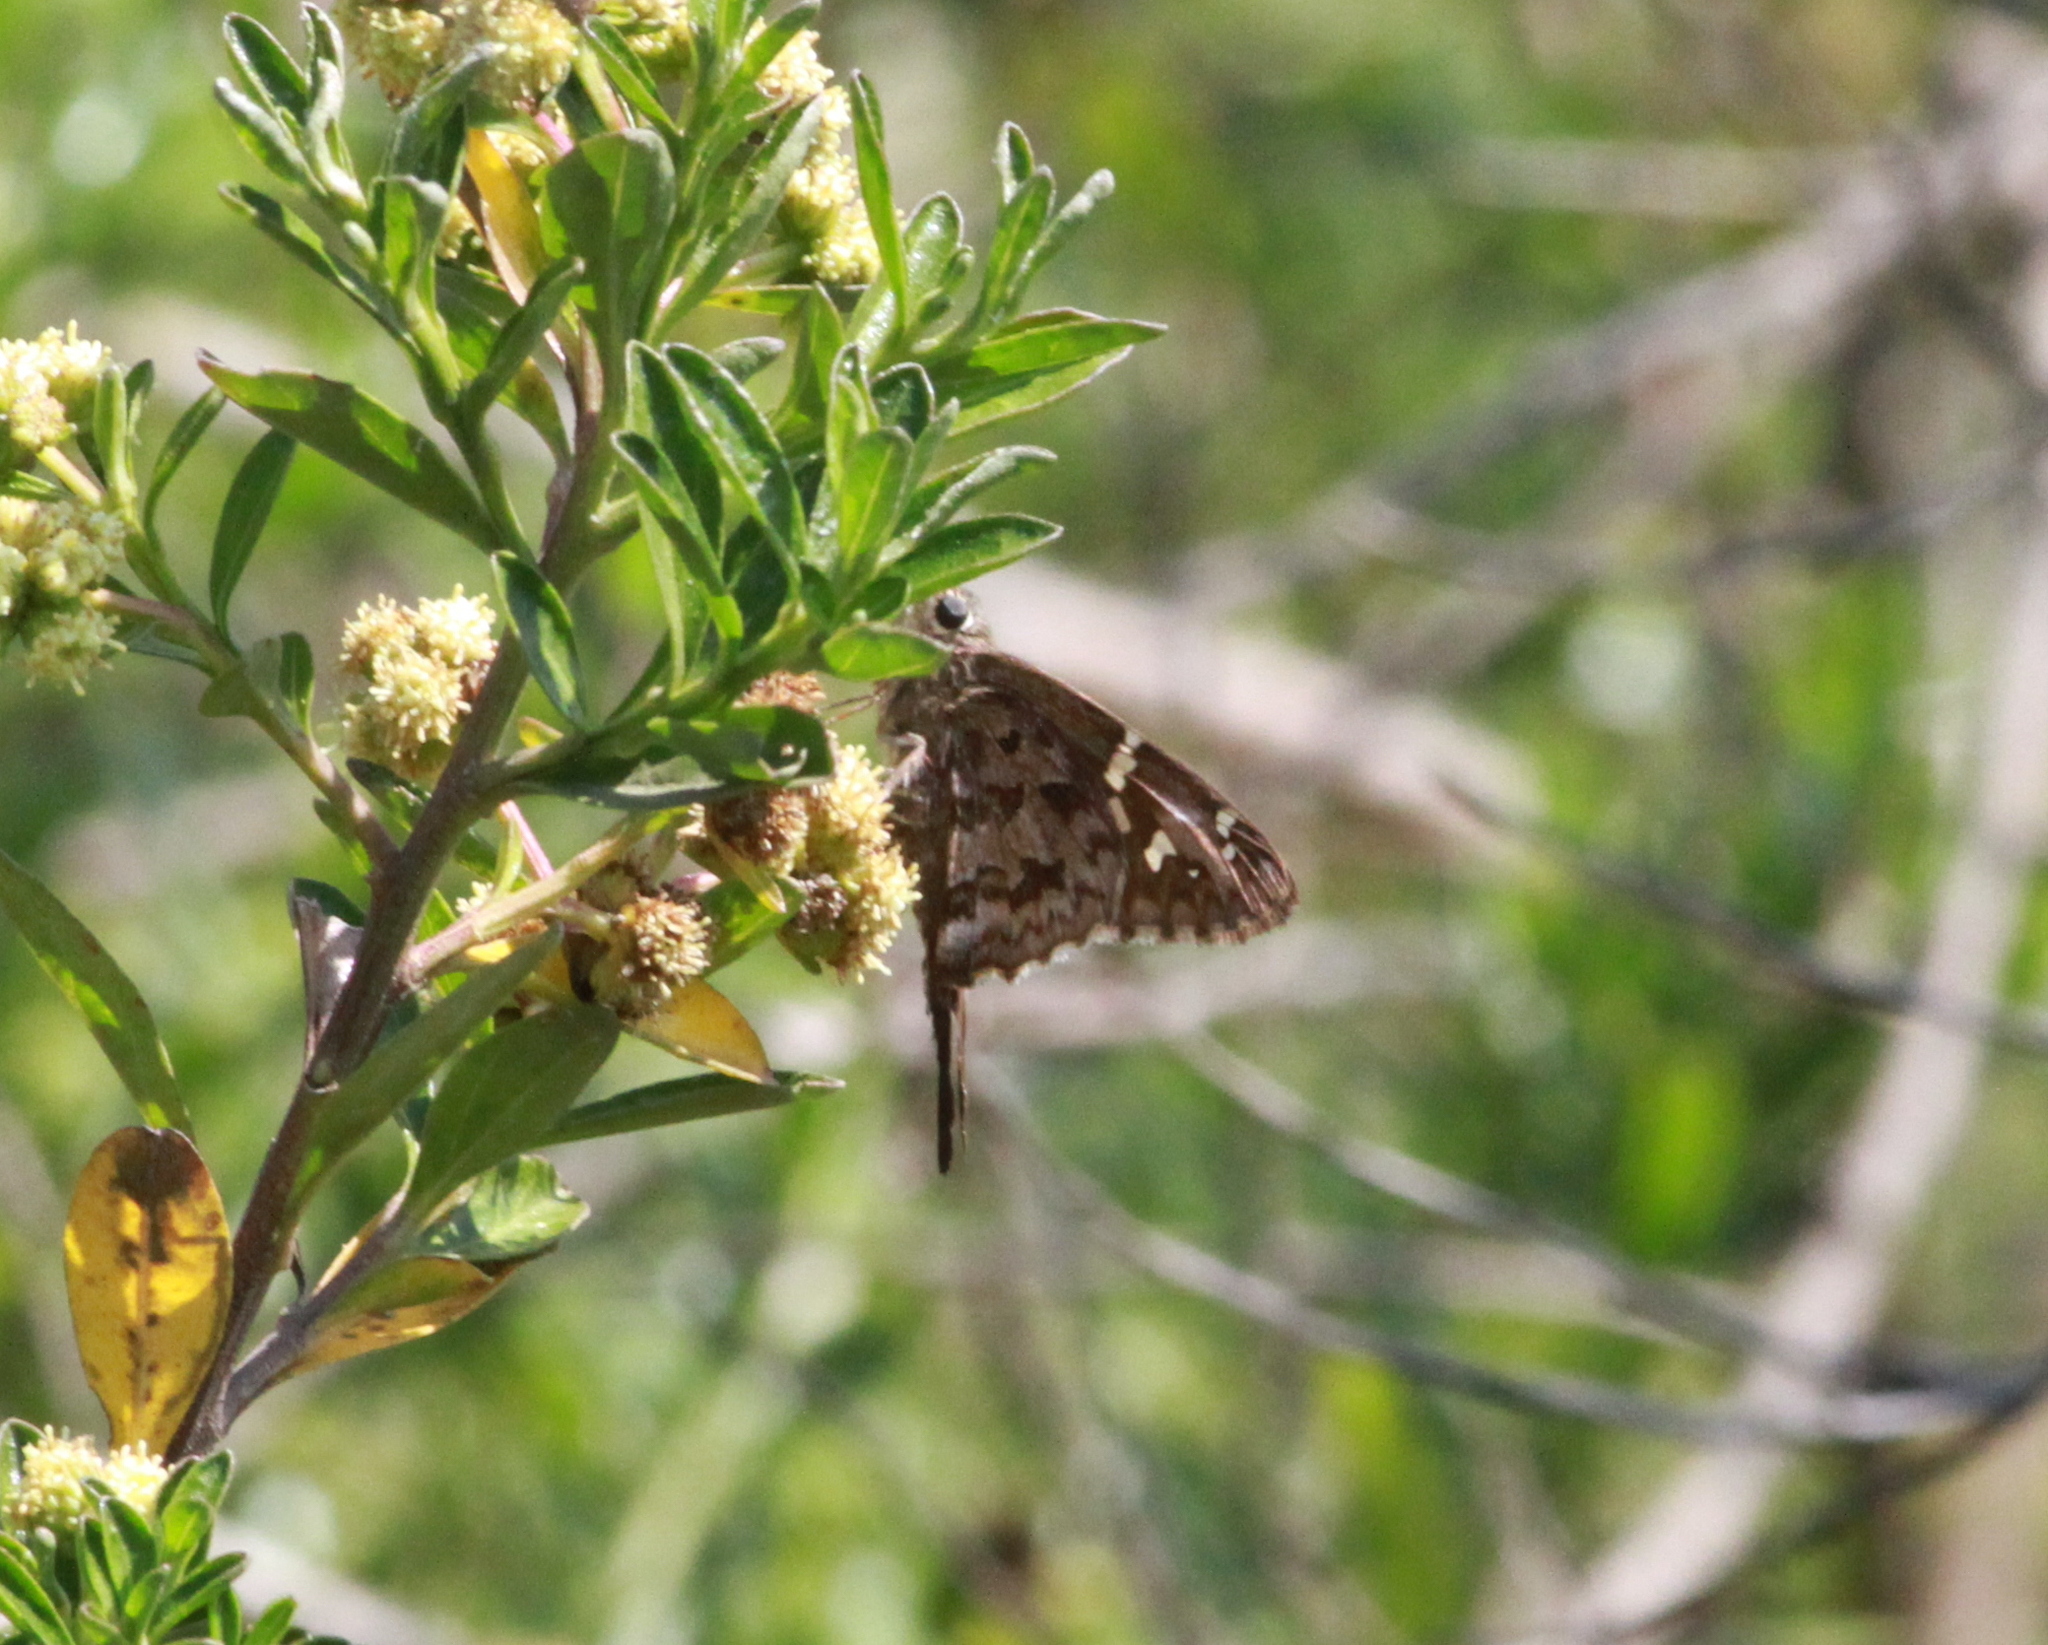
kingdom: Animalia
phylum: Arthropoda
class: Insecta
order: Lepidoptera
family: Hesperiidae
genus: Thorybes
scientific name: Thorybes
